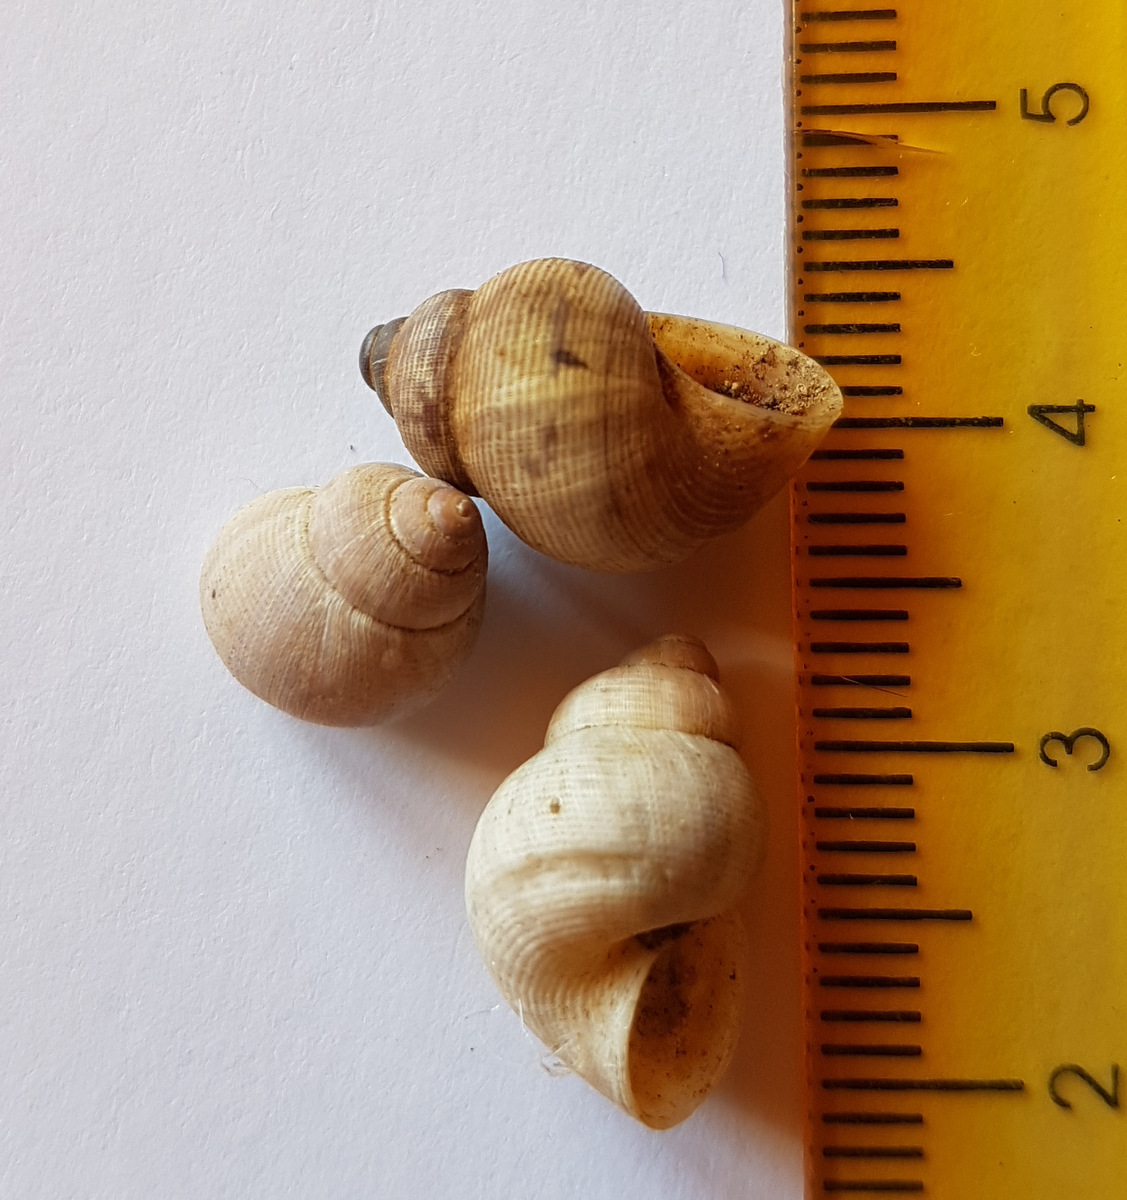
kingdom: Animalia
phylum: Mollusca
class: Gastropoda
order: Littorinimorpha
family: Pomatiidae
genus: Pomatias
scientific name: Pomatias elegans
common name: Red-mouthed snail
